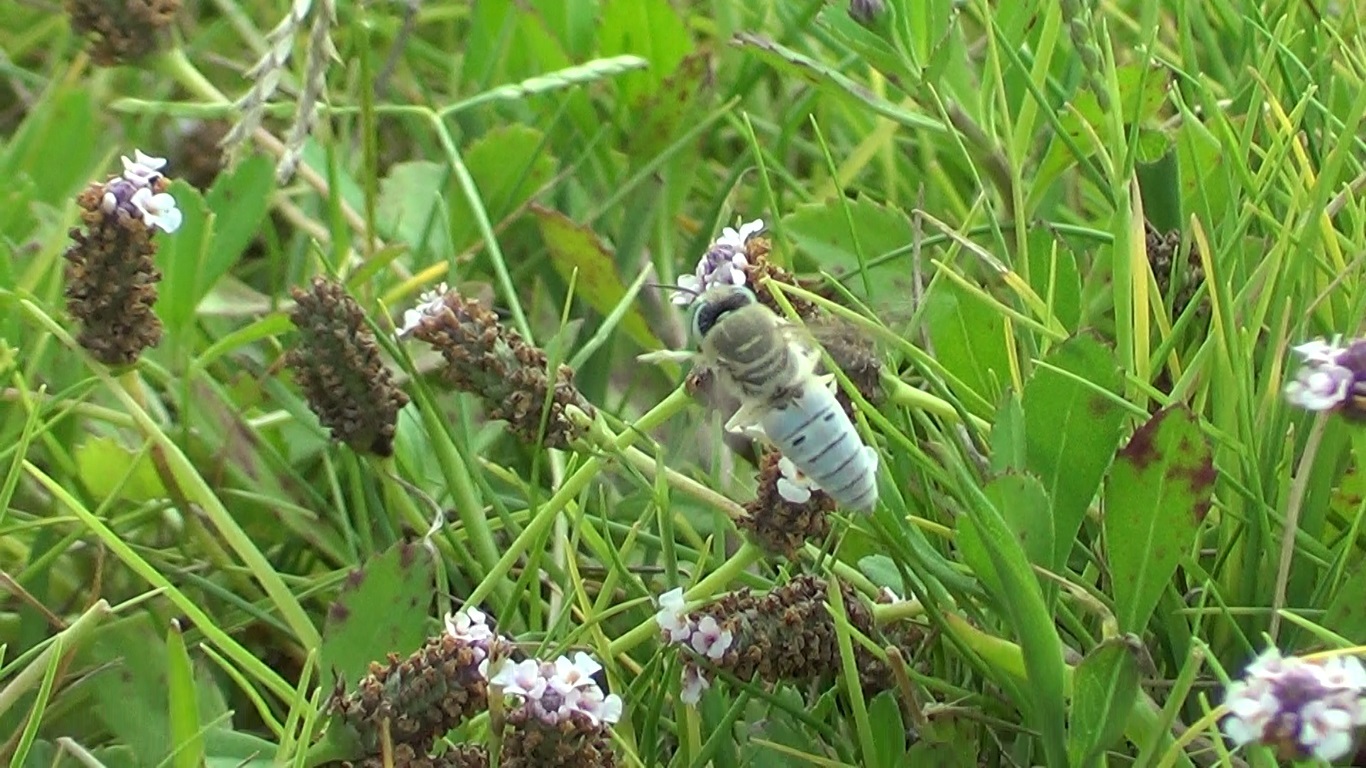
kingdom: Animalia
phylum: Arthropoda
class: Insecta
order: Hymenoptera
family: Crabronidae
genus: Bembix
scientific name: Bembix olivacea
